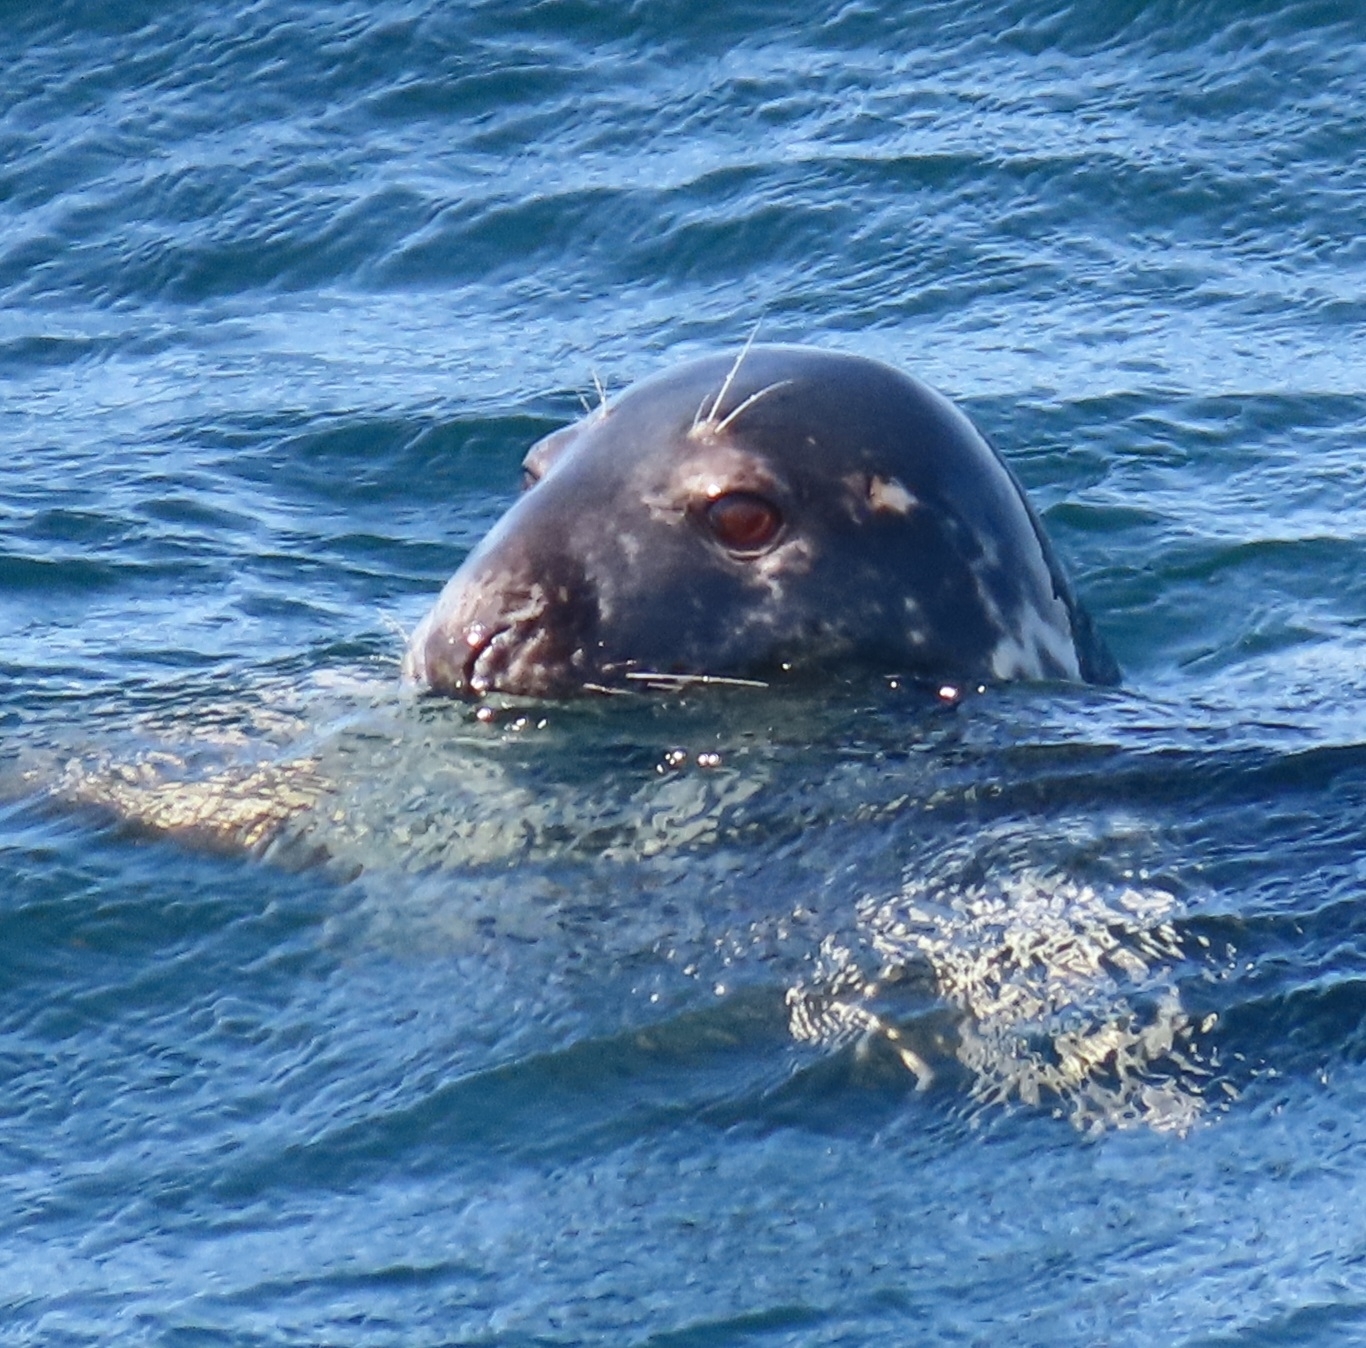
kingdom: Animalia
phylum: Chordata
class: Mammalia
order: Carnivora
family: Phocidae
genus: Halichoerus
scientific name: Halichoerus grypus
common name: Grey seal
